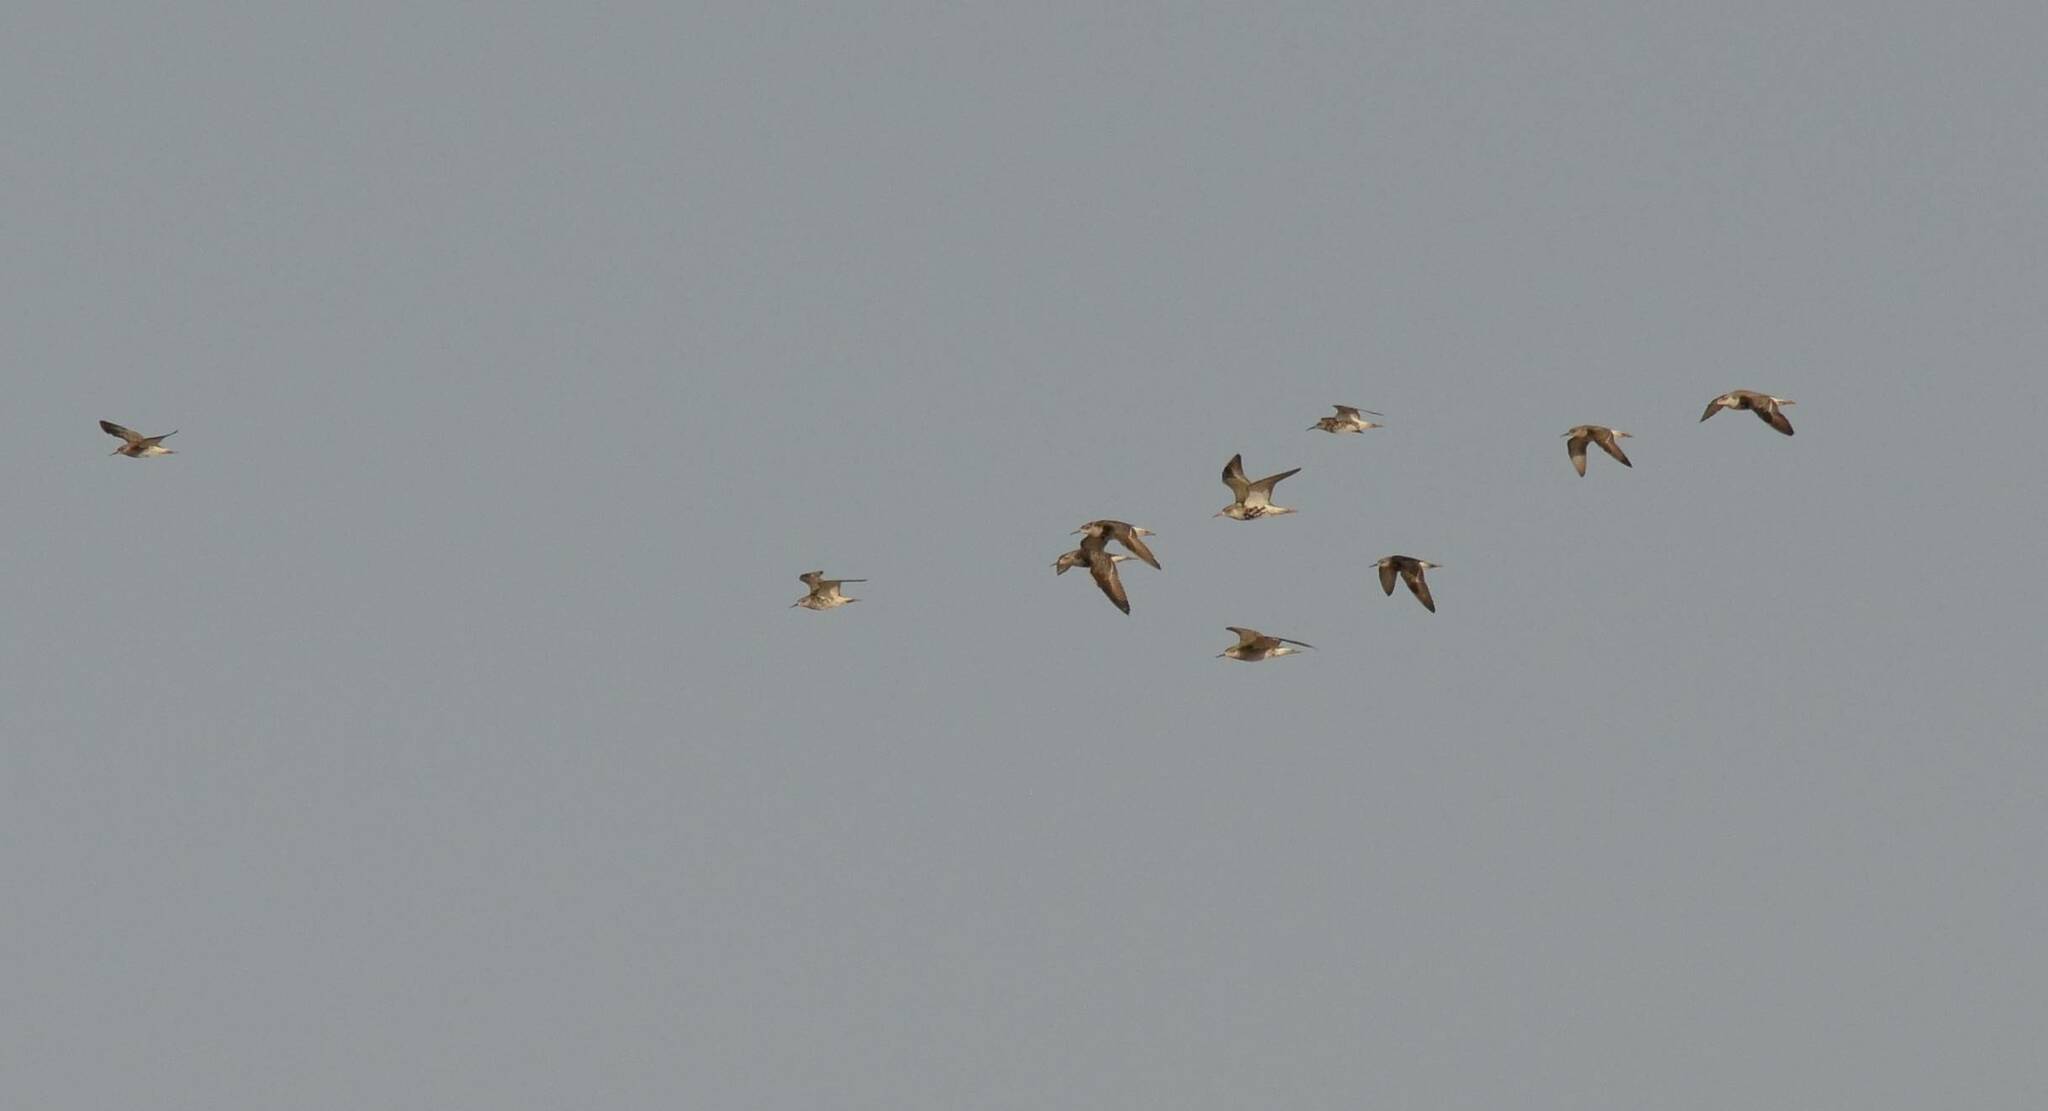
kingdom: Animalia
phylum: Chordata
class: Aves
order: Charadriiformes
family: Scolopacidae
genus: Calidris
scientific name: Calidris pugnax
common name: Ruff
